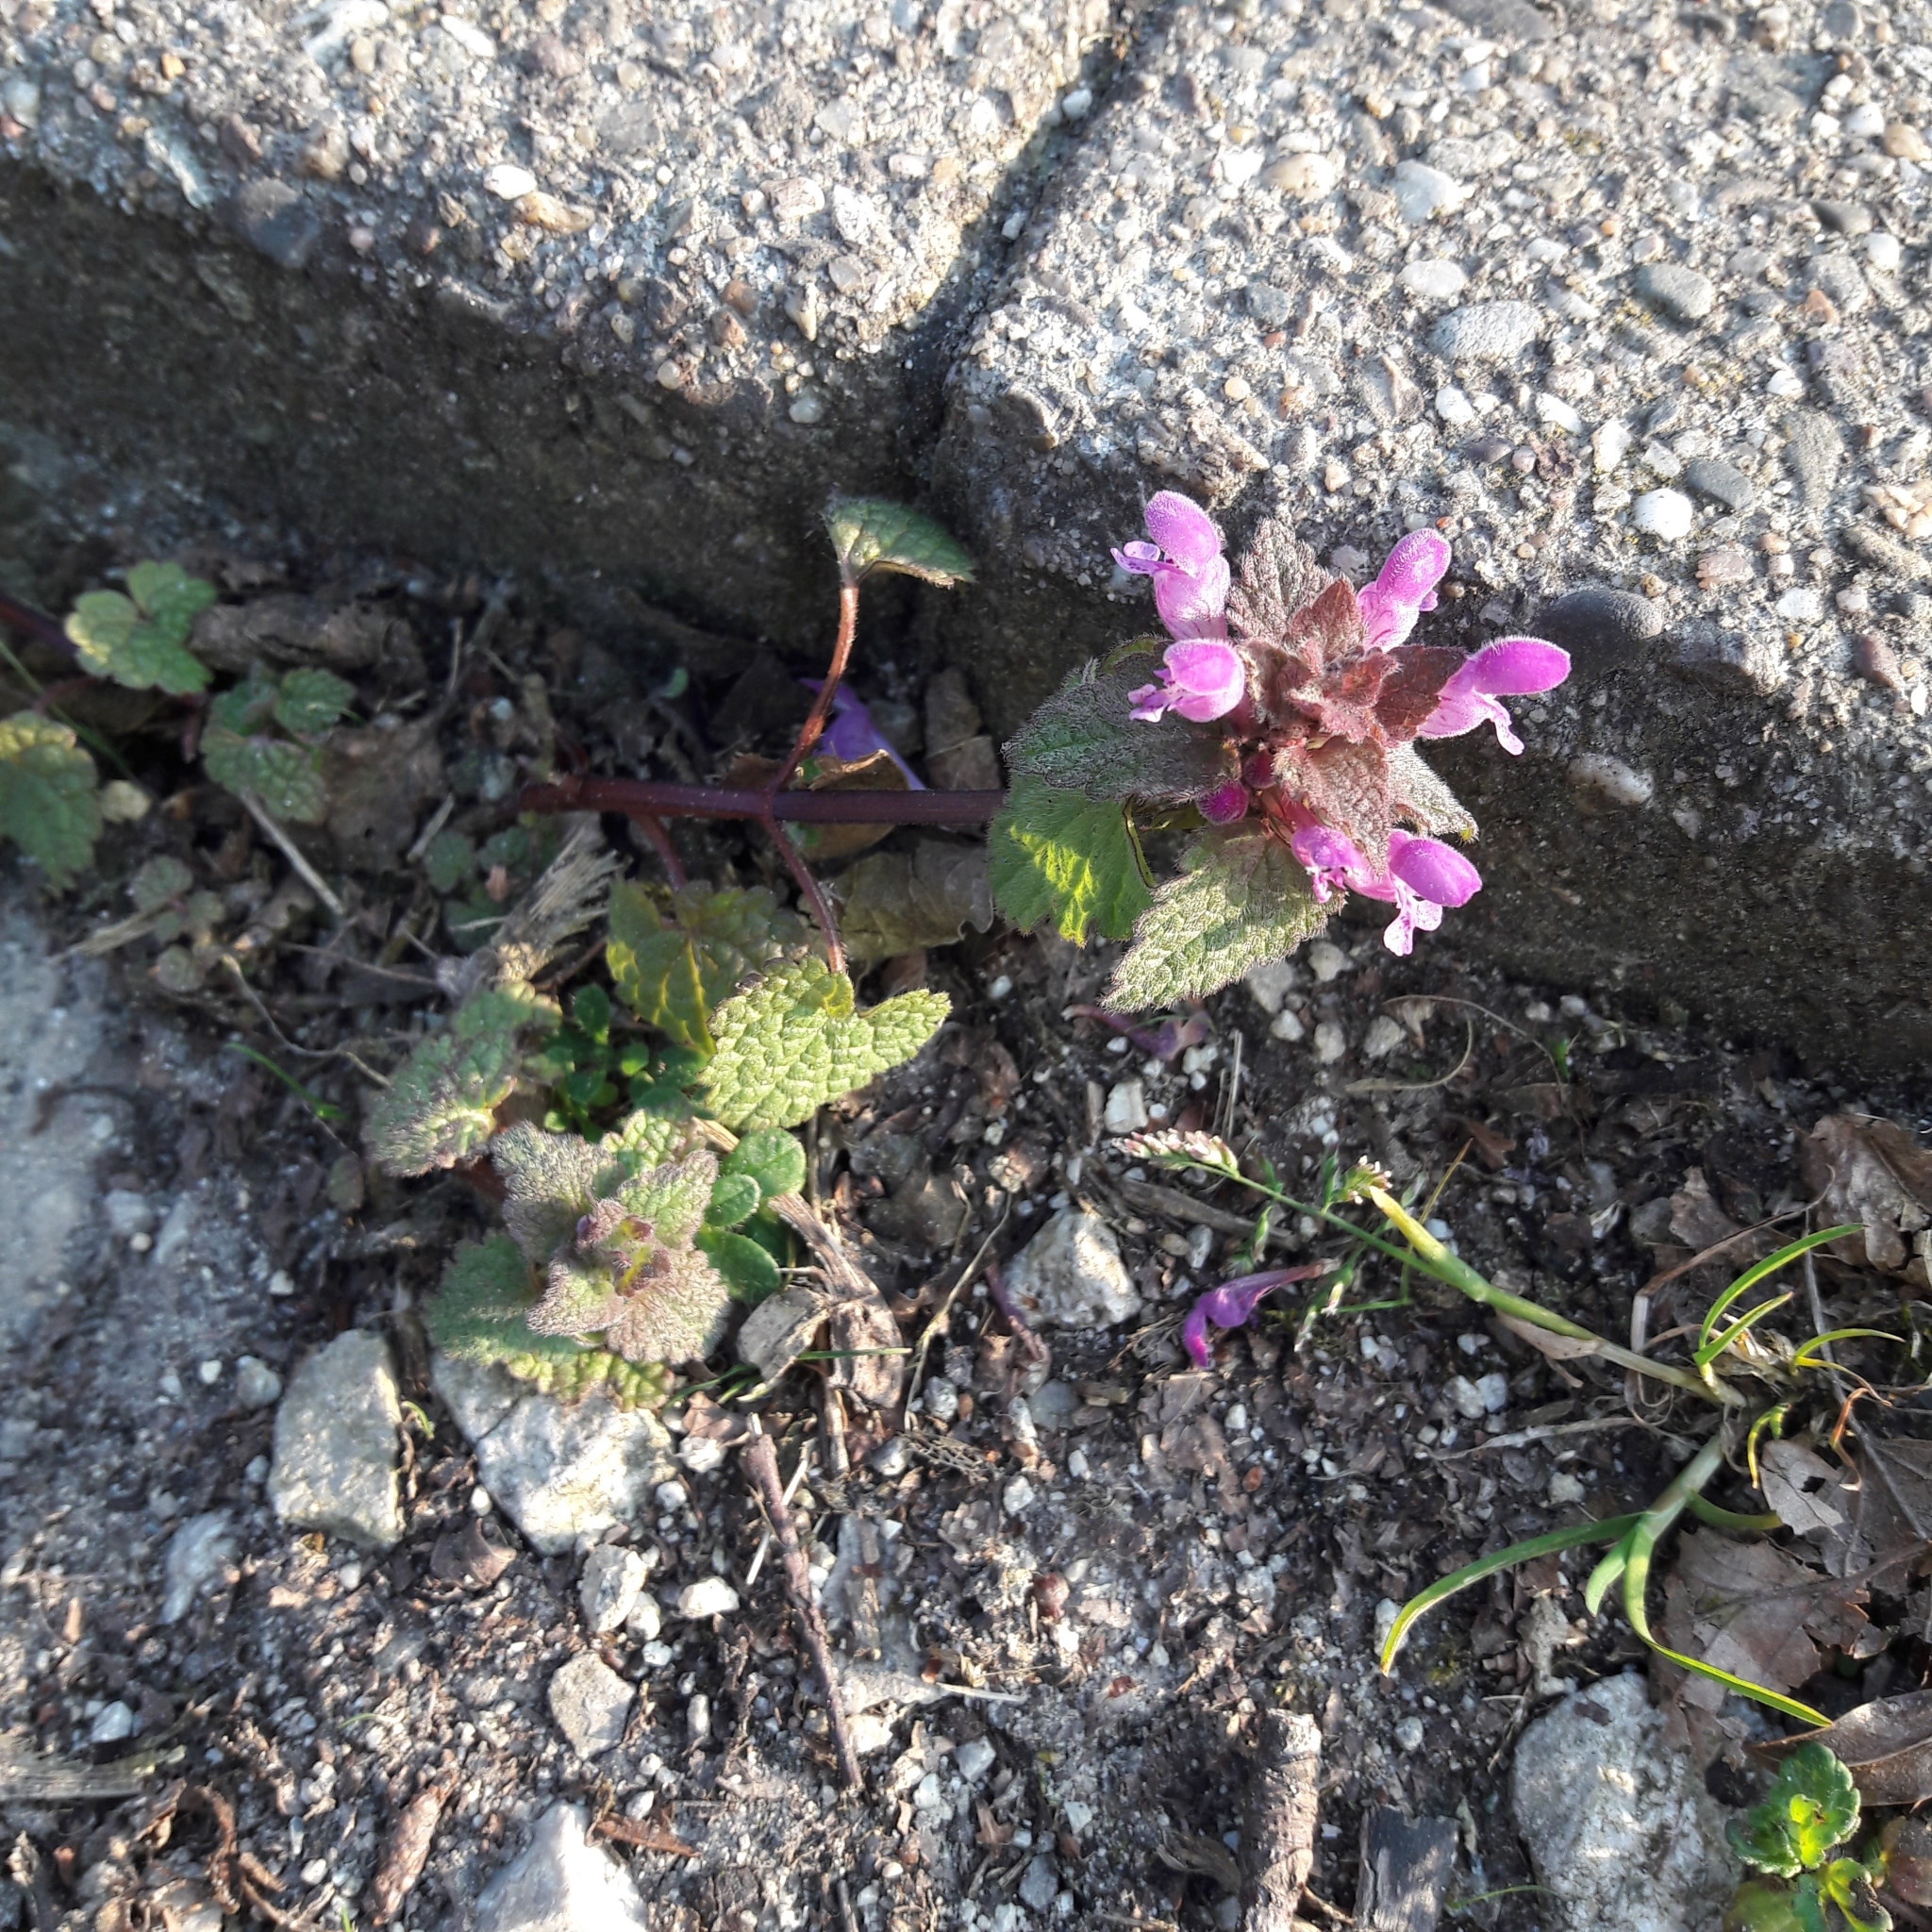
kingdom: Plantae
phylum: Tracheophyta
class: Magnoliopsida
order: Lamiales
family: Lamiaceae
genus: Lamium
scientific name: Lamium purpureum
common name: Red dead-nettle
